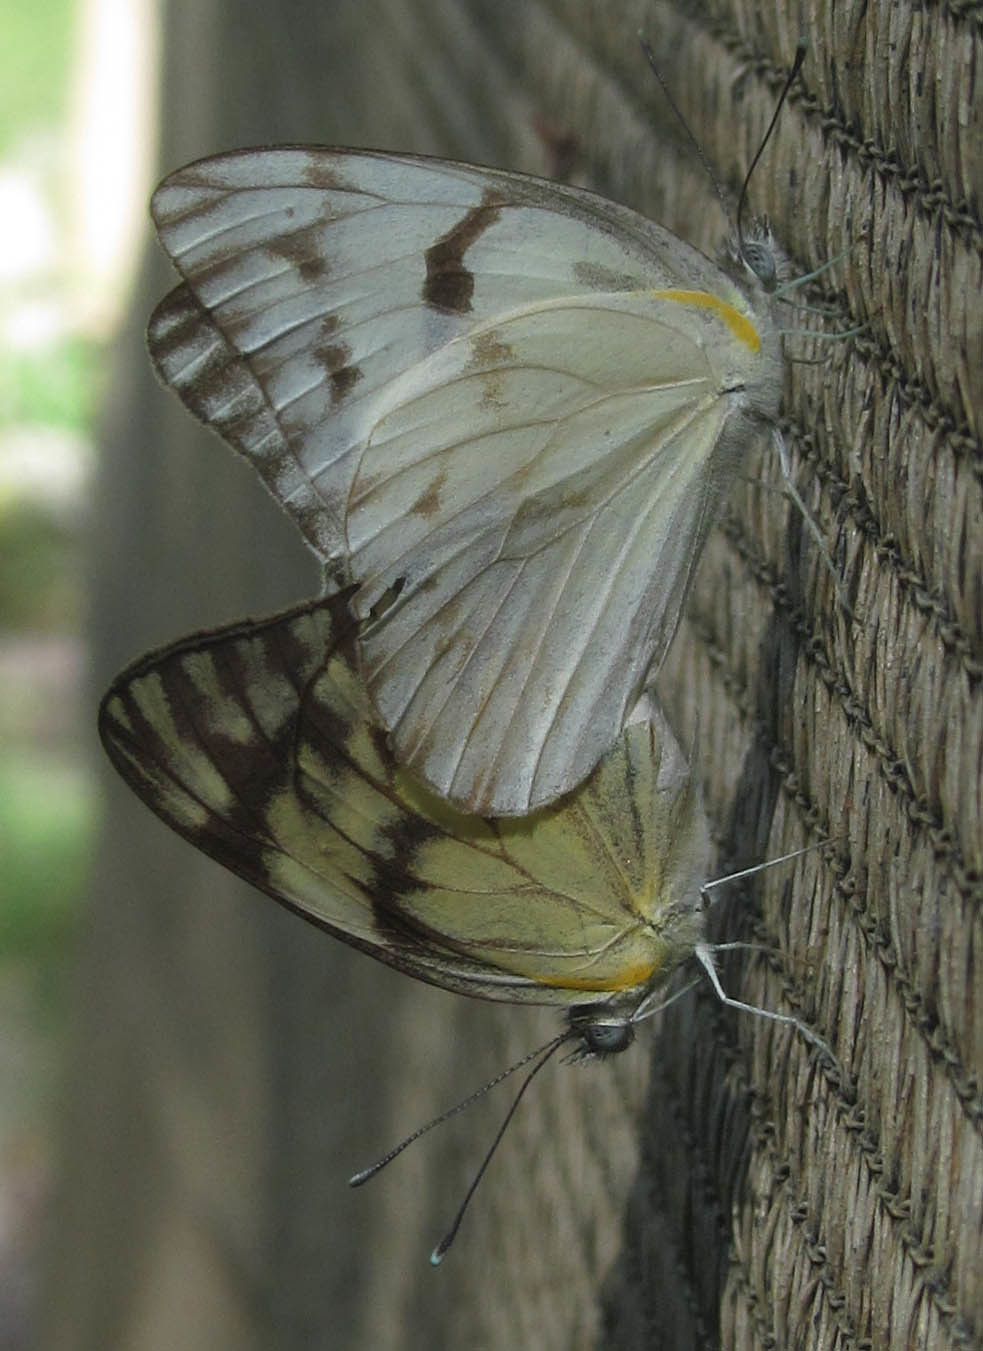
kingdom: Animalia
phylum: Arthropoda
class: Insecta
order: Lepidoptera
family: Pieridae
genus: Belenois
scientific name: Belenois gidica
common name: Pointed caper white
